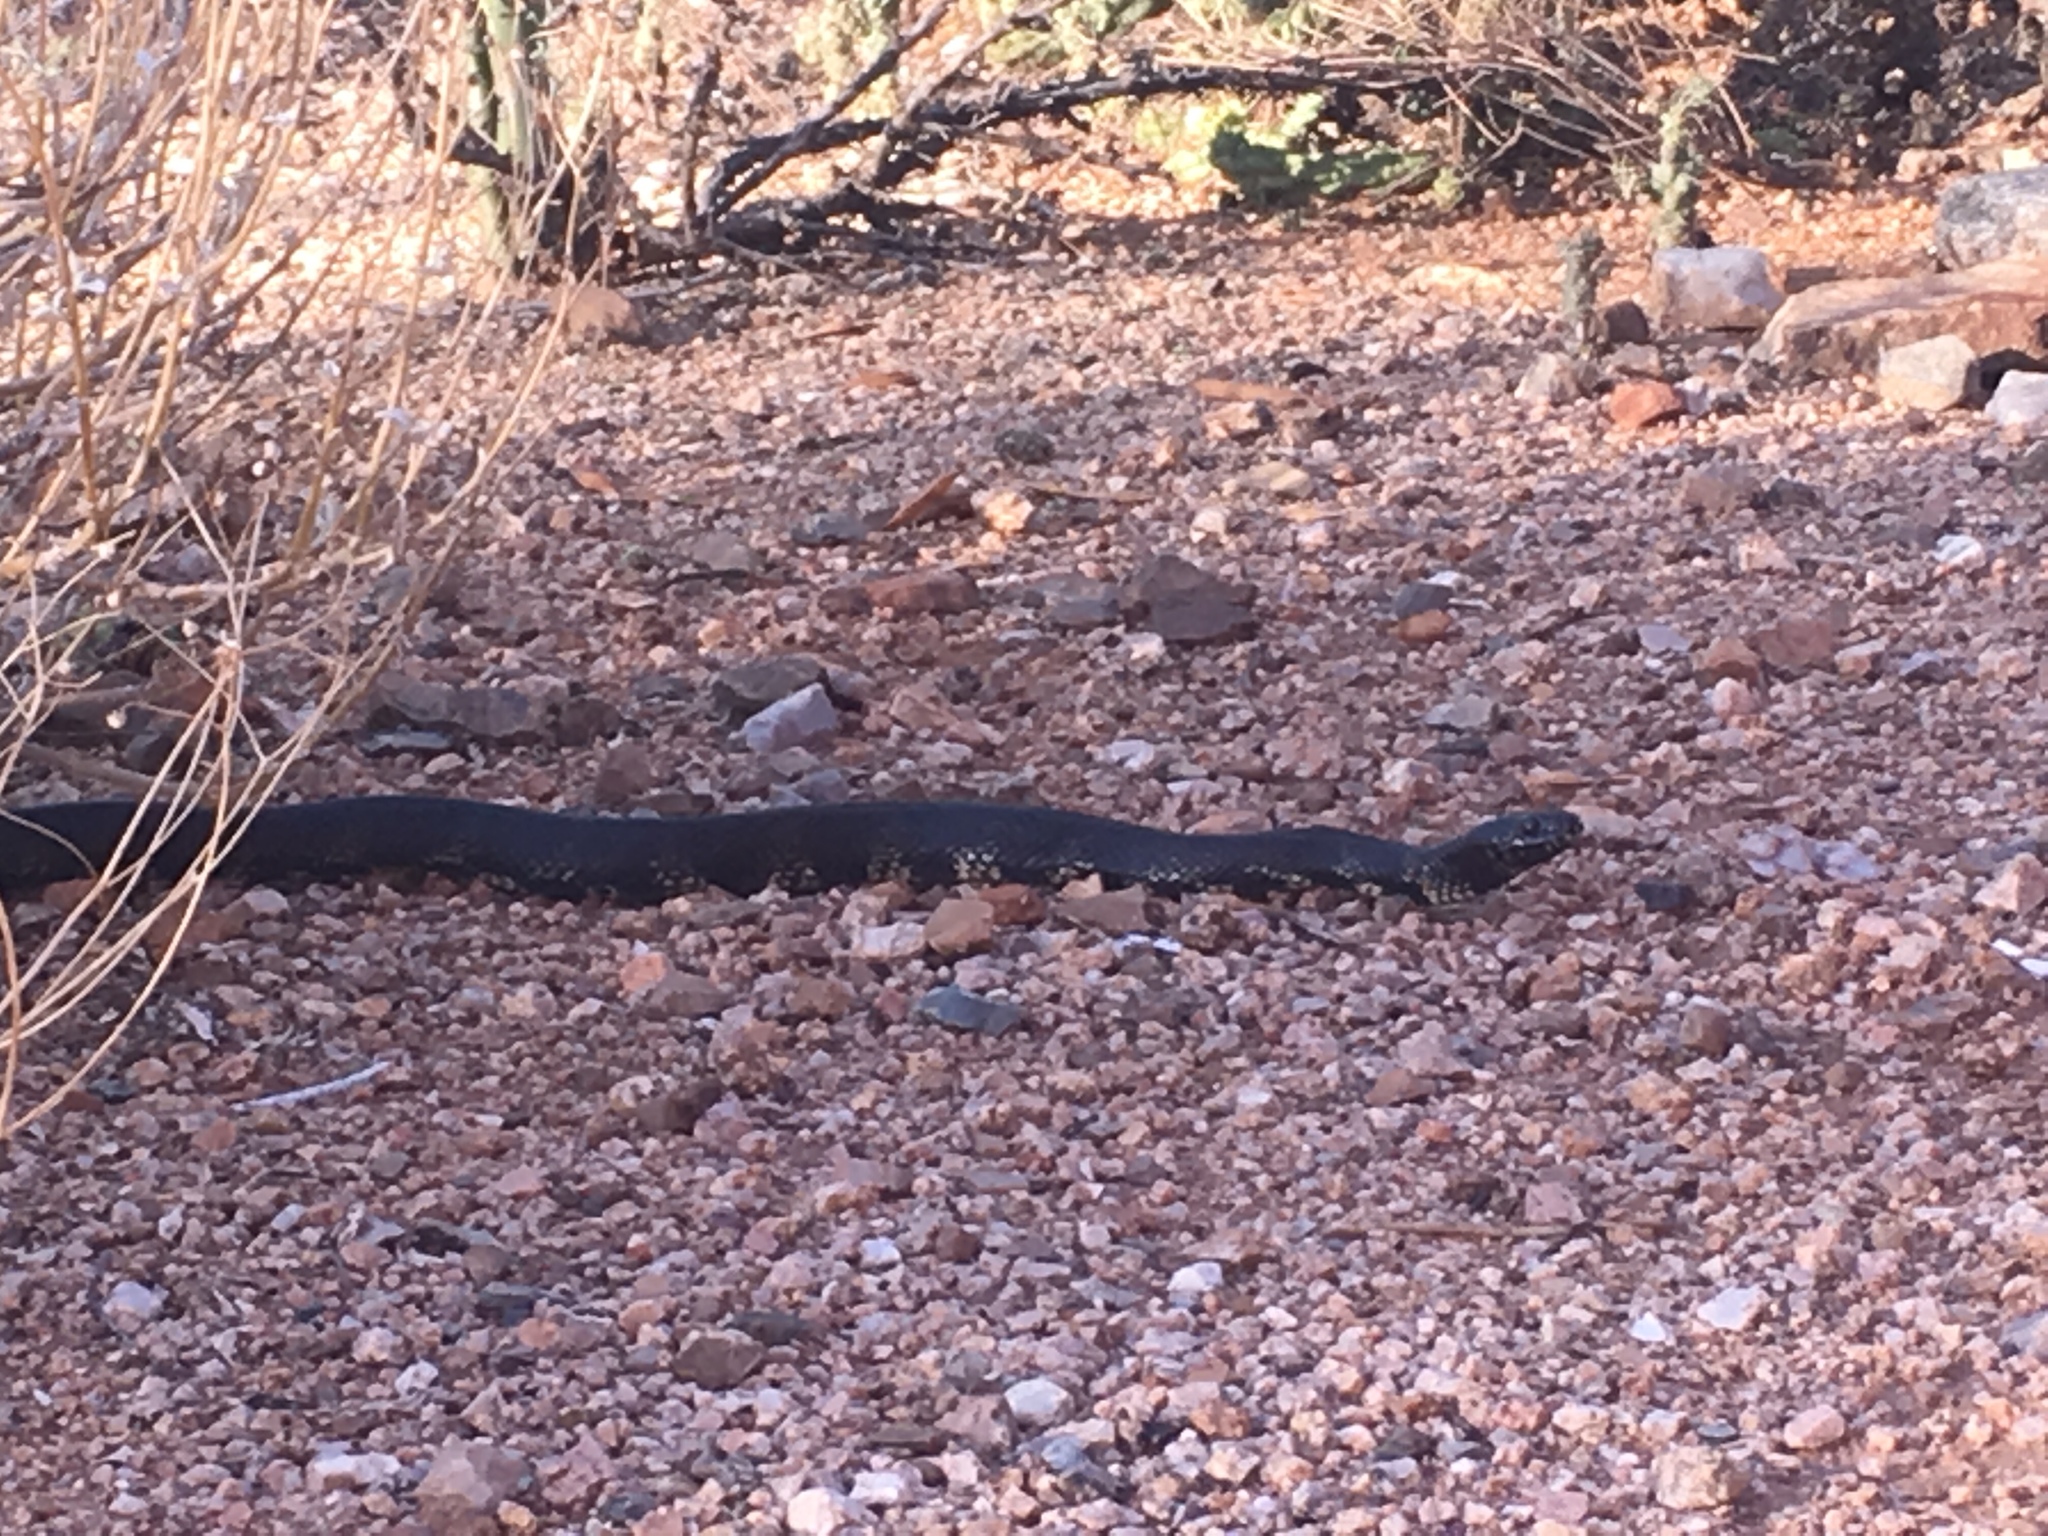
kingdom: Animalia
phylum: Chordata
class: Squamata
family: Colubridae
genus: Lampropeltis
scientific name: Lampropeltis splendida
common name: Desert kingsnake
